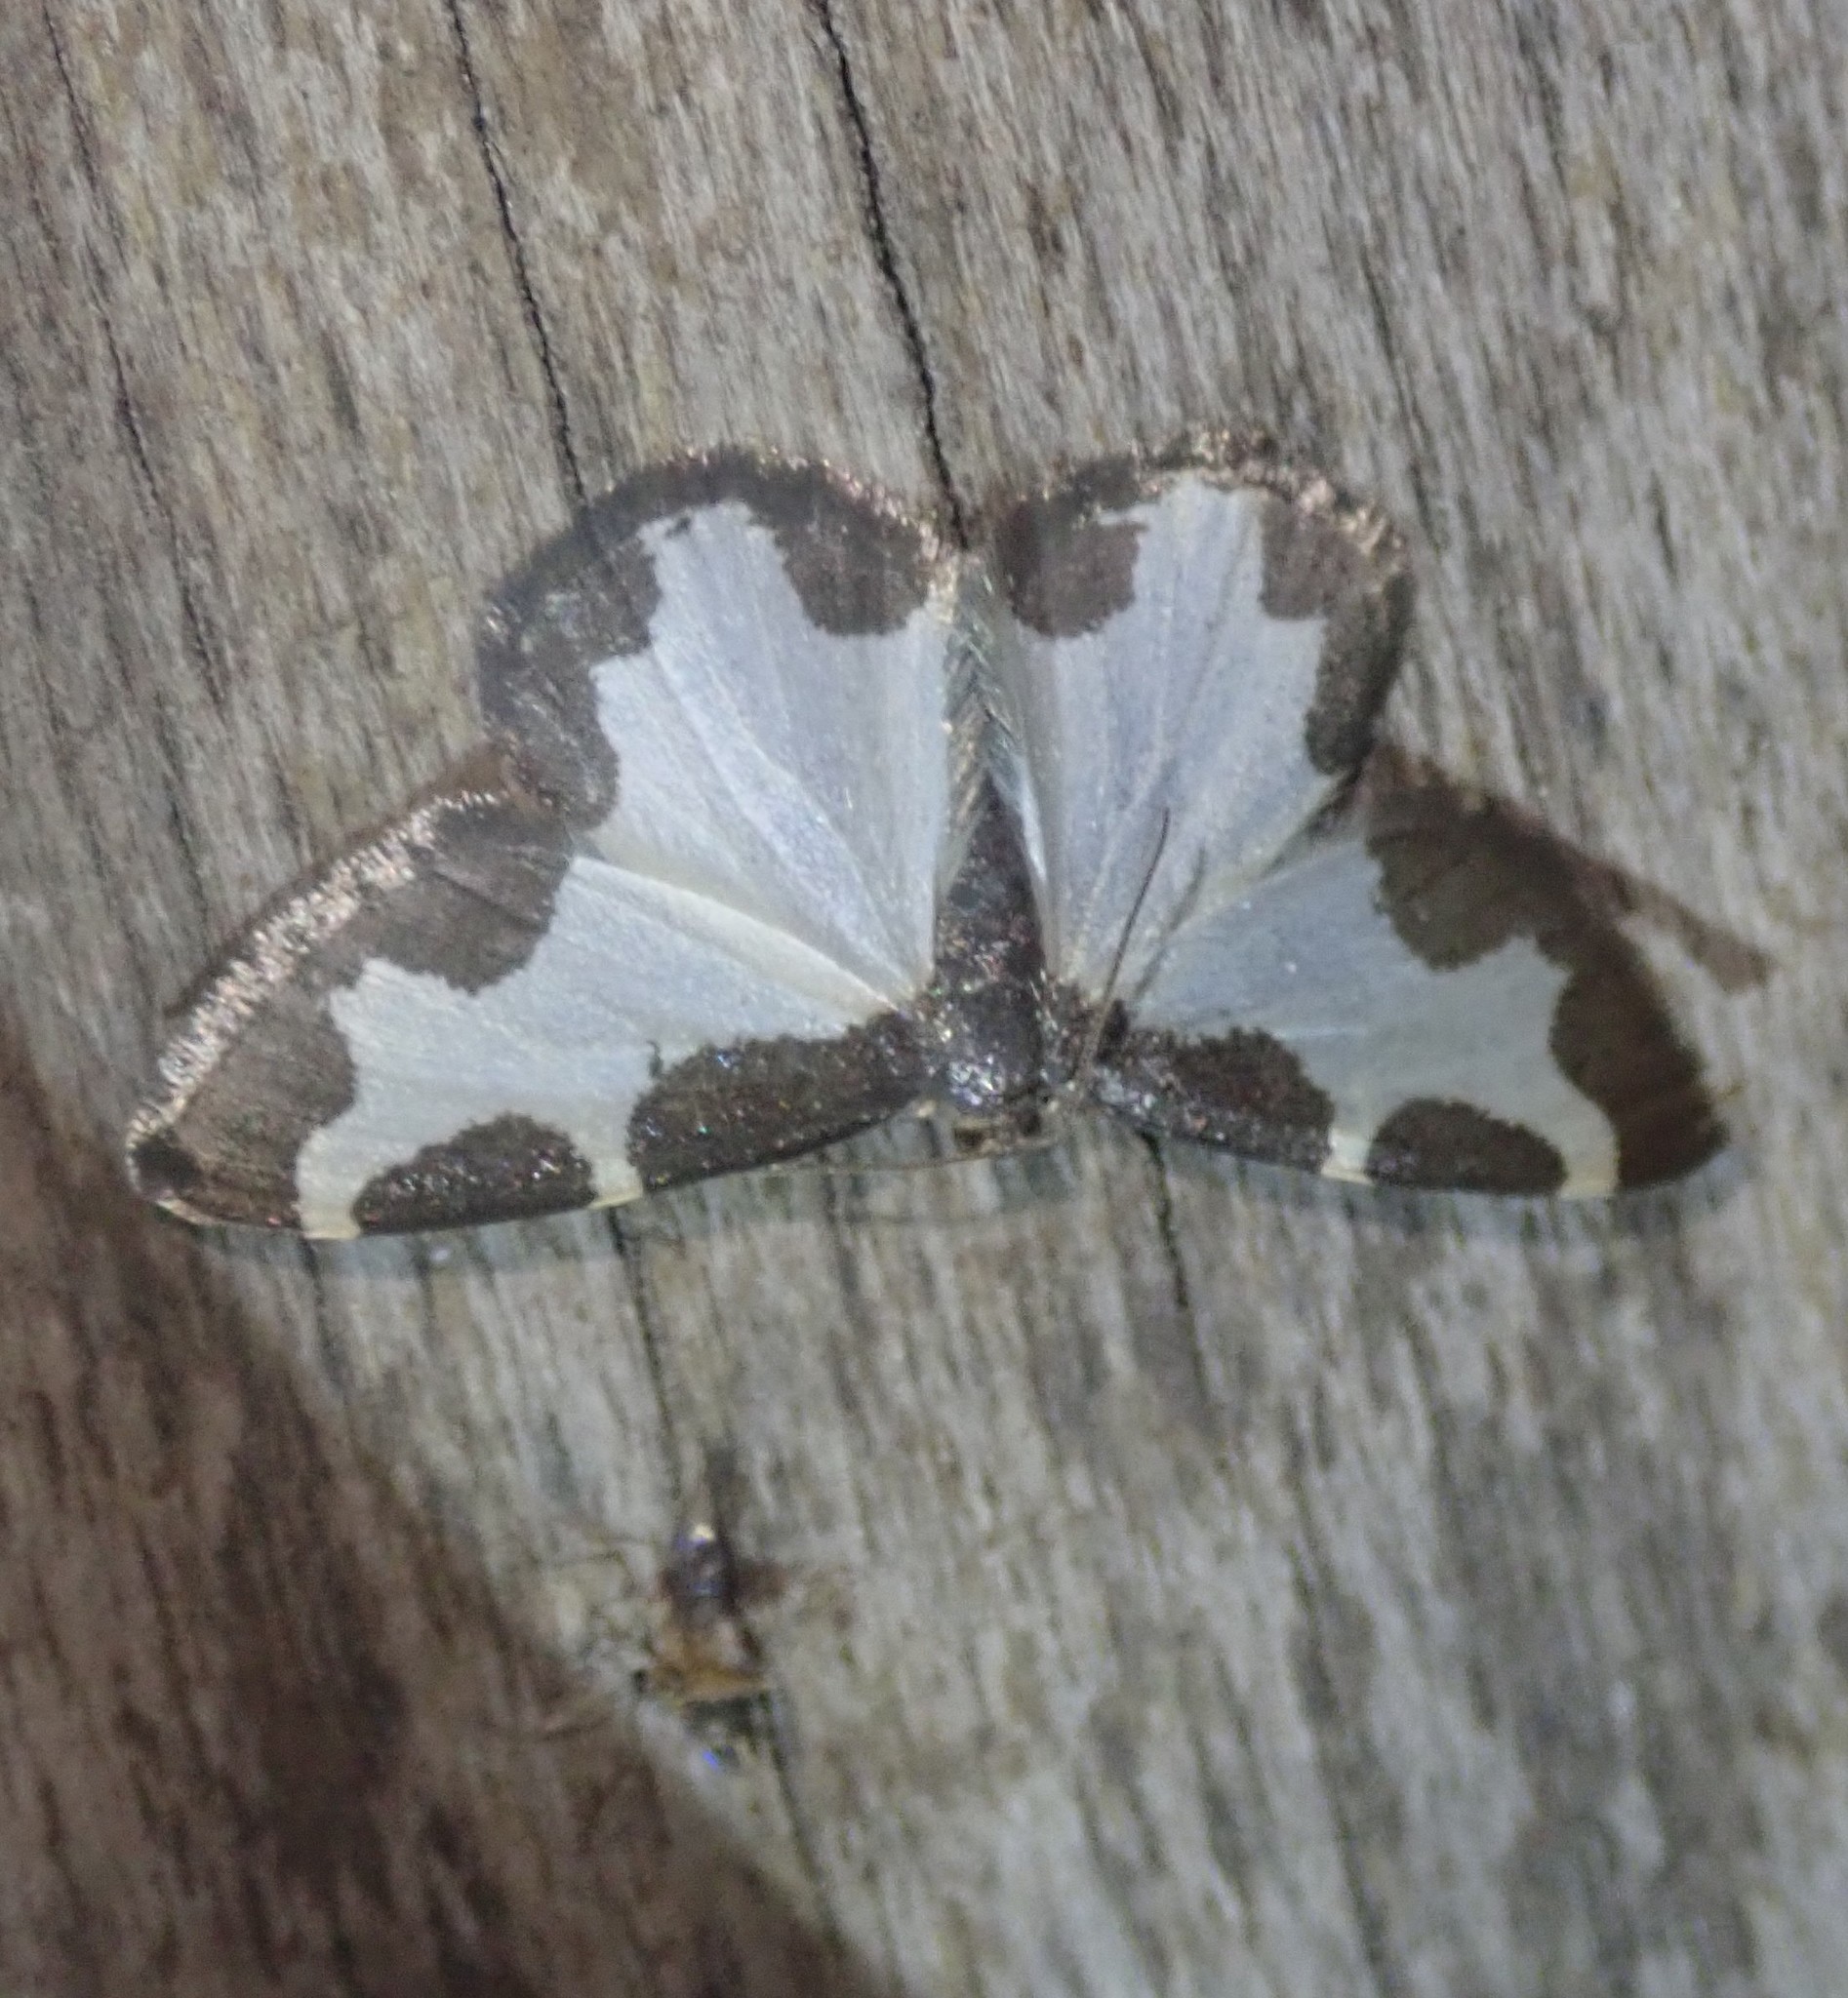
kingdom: Animalia
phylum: Arthropoda
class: Insecta
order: Lepidoptera
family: Geometridae
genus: Lomaspilis
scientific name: Lomaspilis marginata
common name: Clouded border
